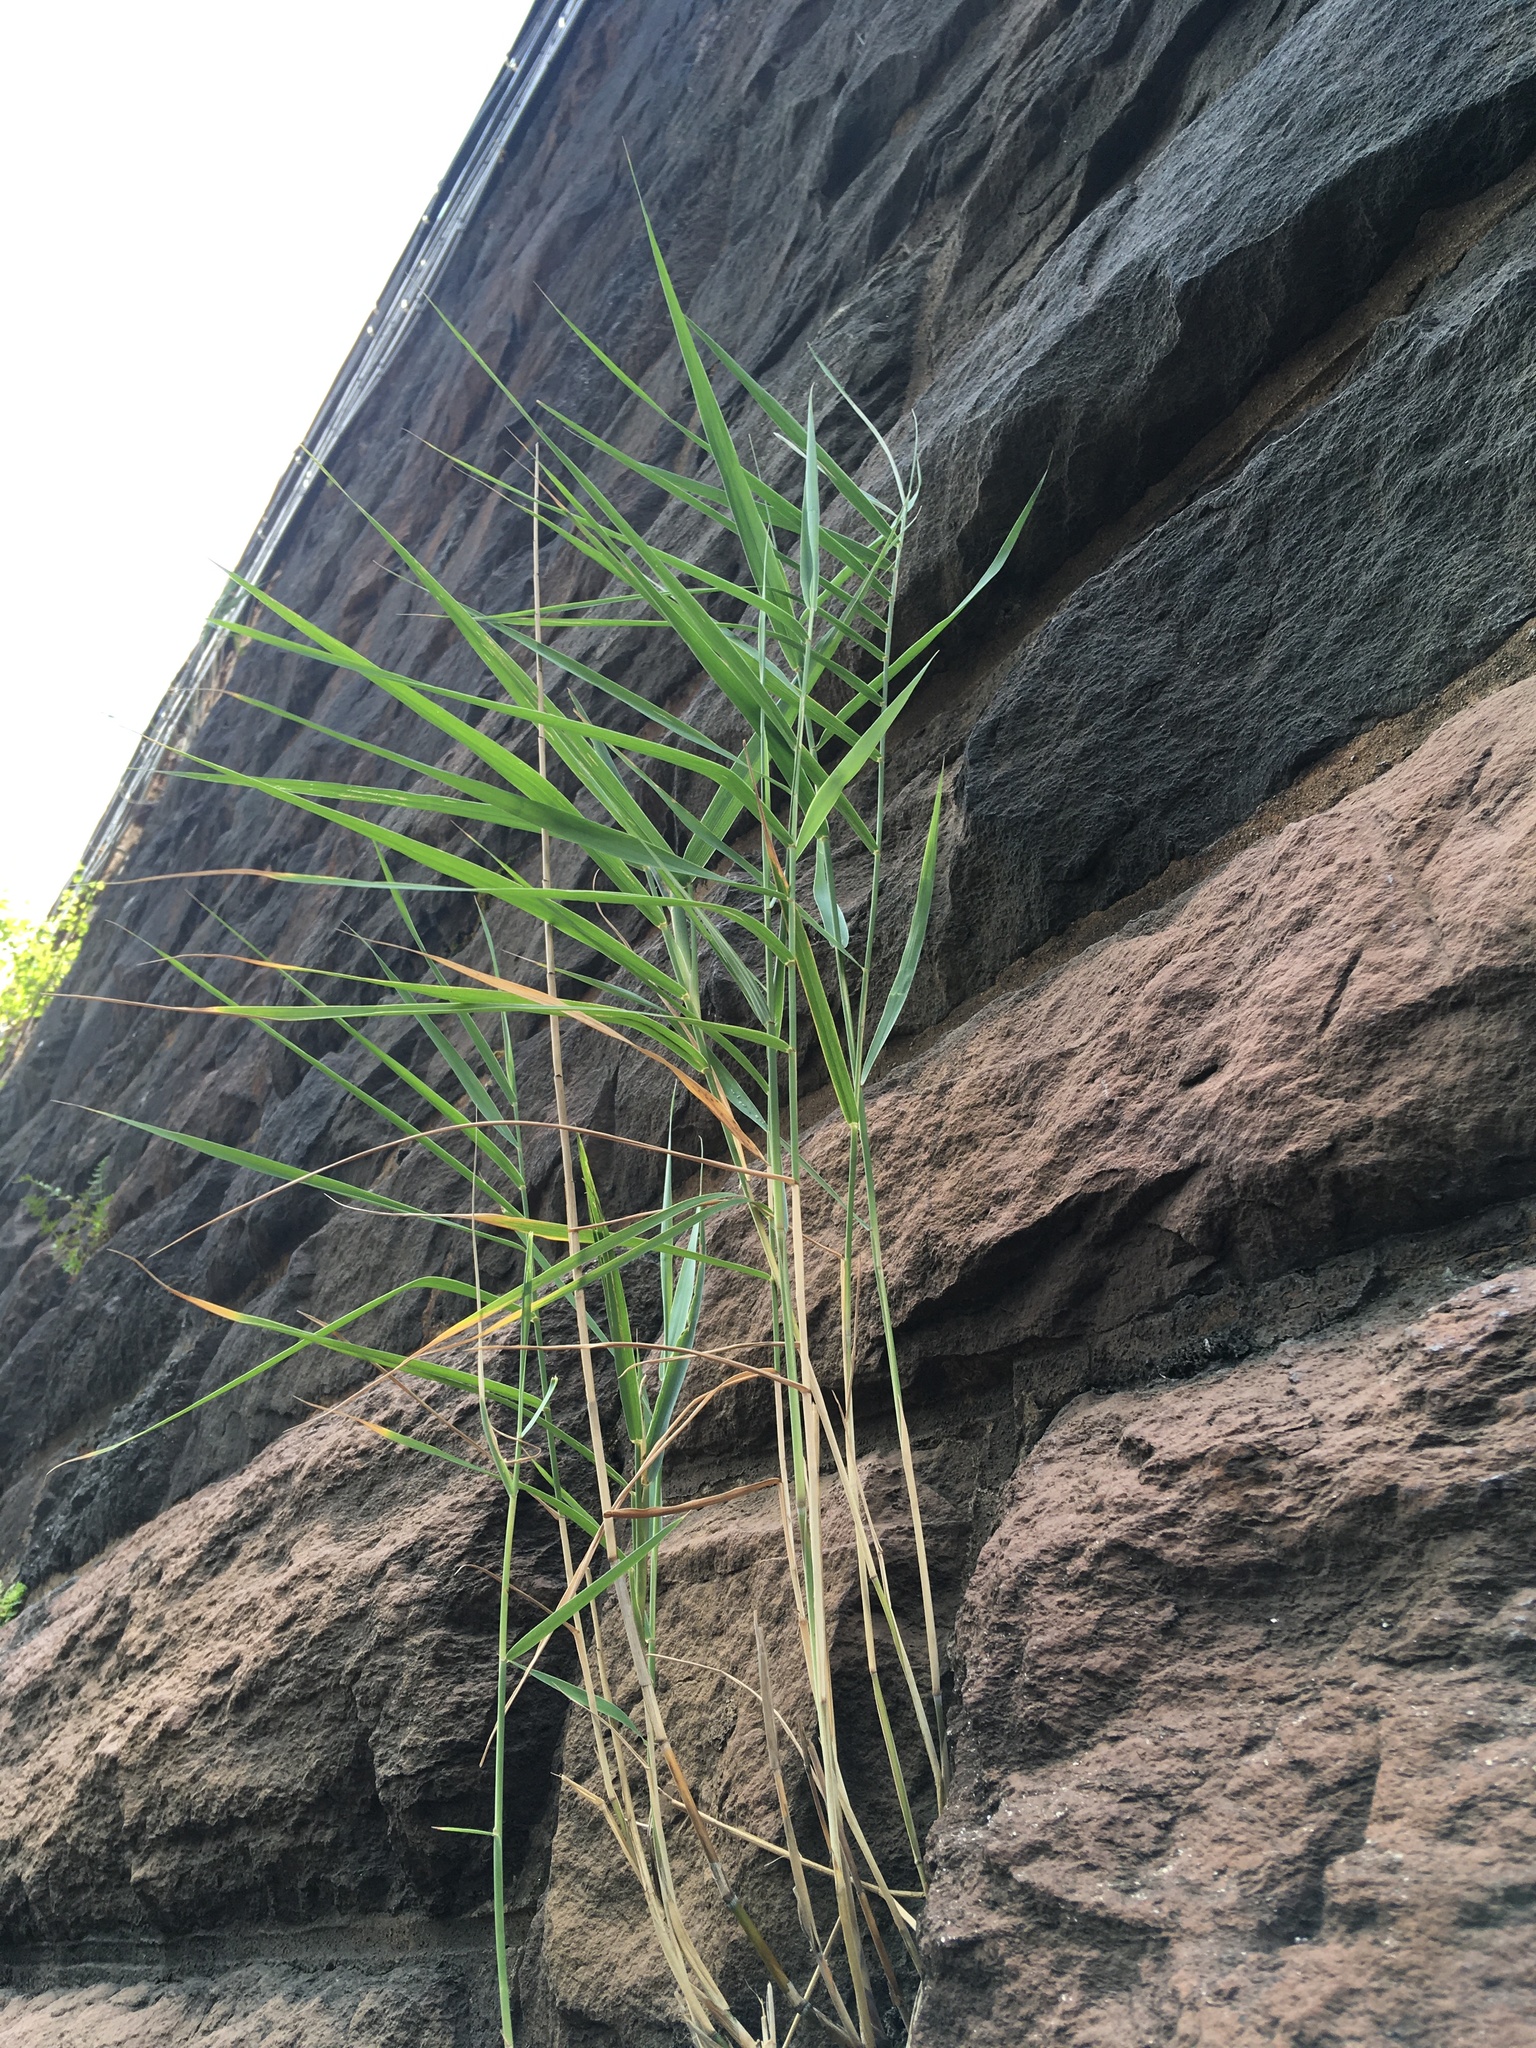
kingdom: Plantae
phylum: Tracheophyta
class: Liliopsida
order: Poales
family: Poaceae
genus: Phragmites
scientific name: Phragmites australis
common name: Common reed
